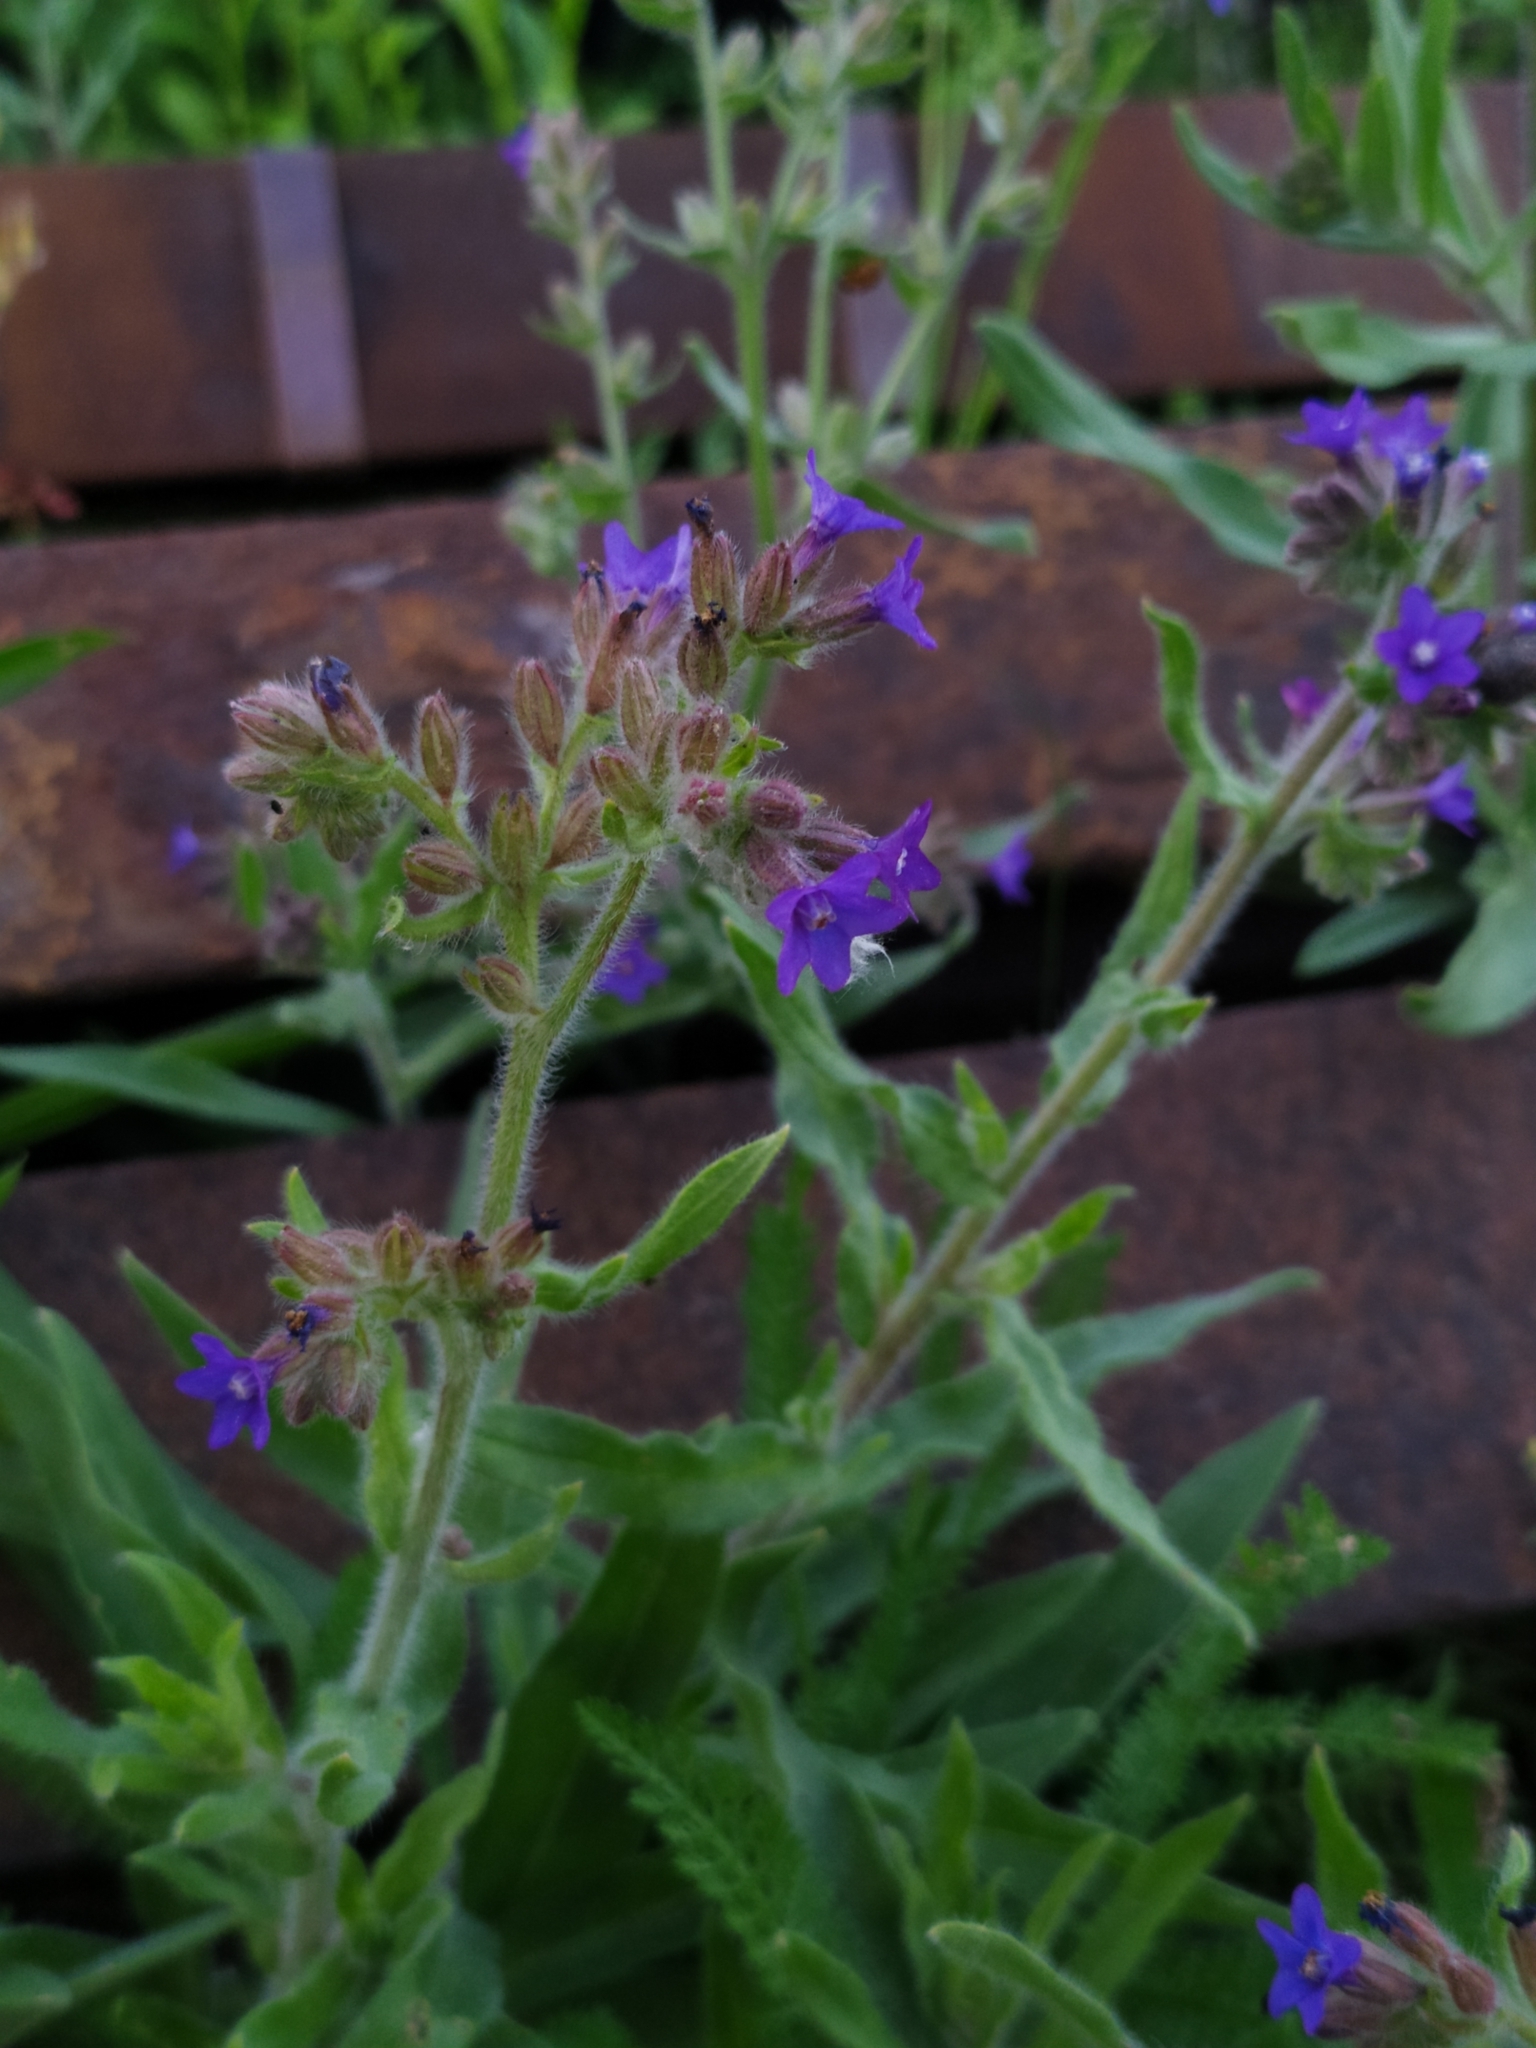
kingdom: Plantae
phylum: Tracheophyta
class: Magnoliopsida
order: Boraginales
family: Boraginaceae
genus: Anchusa
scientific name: Anchusa officinalis
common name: Alkanet
